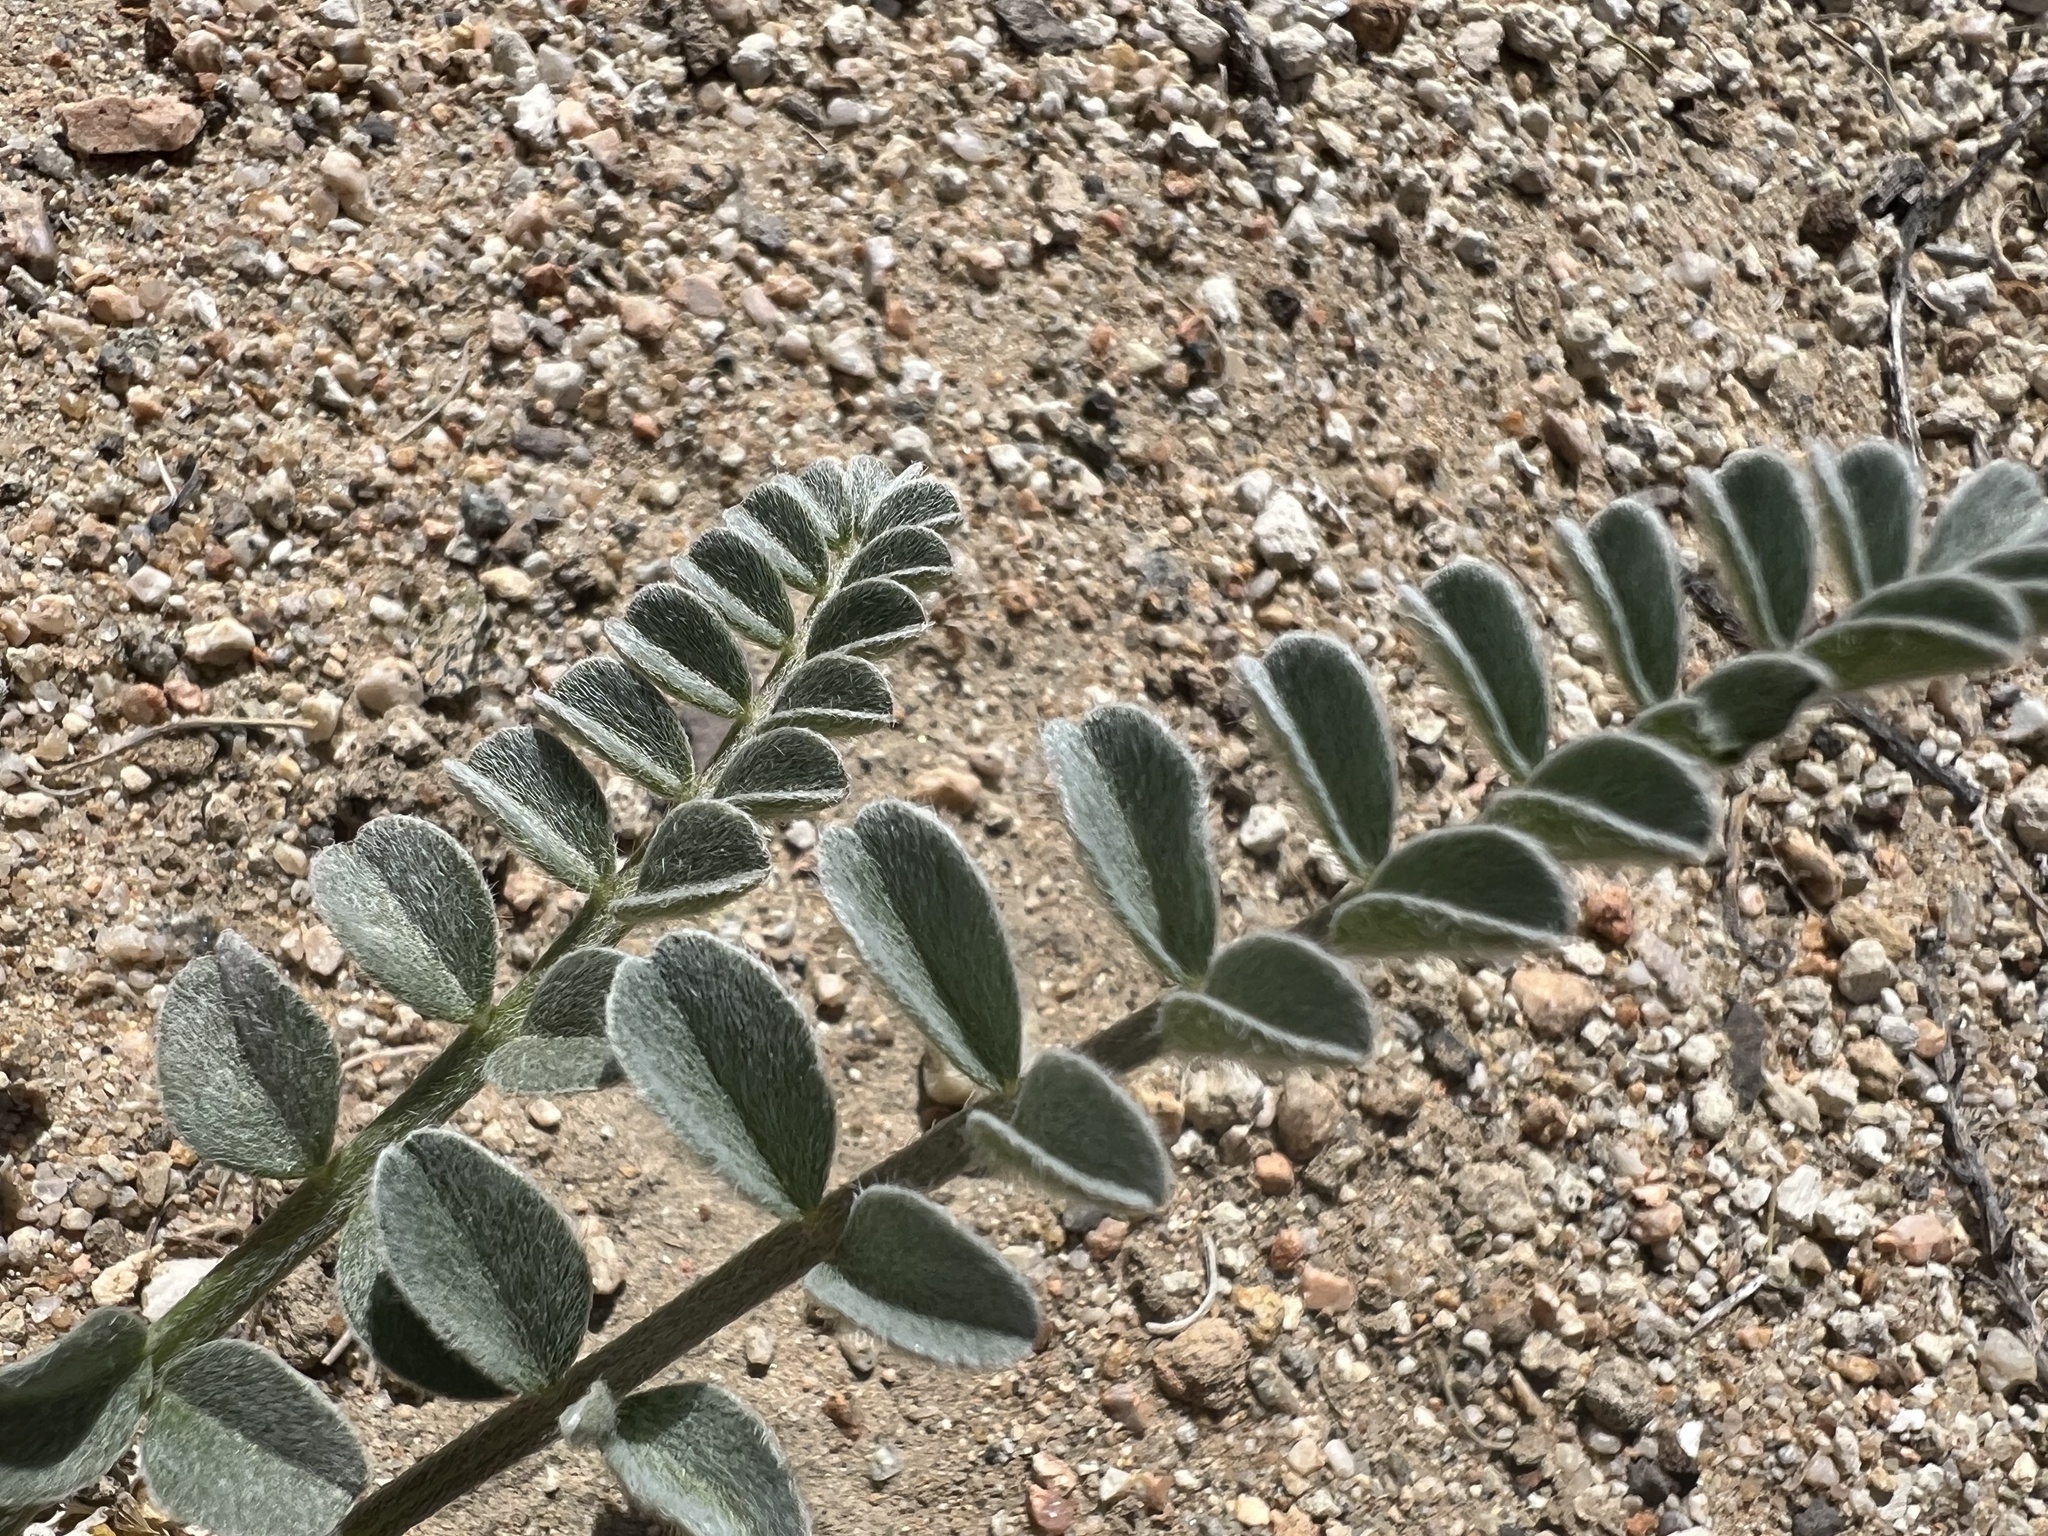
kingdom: Plantae
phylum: Tracheophyta
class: Magnoliopsida
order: Fabales
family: Fabaceae
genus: Astragalus
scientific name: Astragalus layneae
